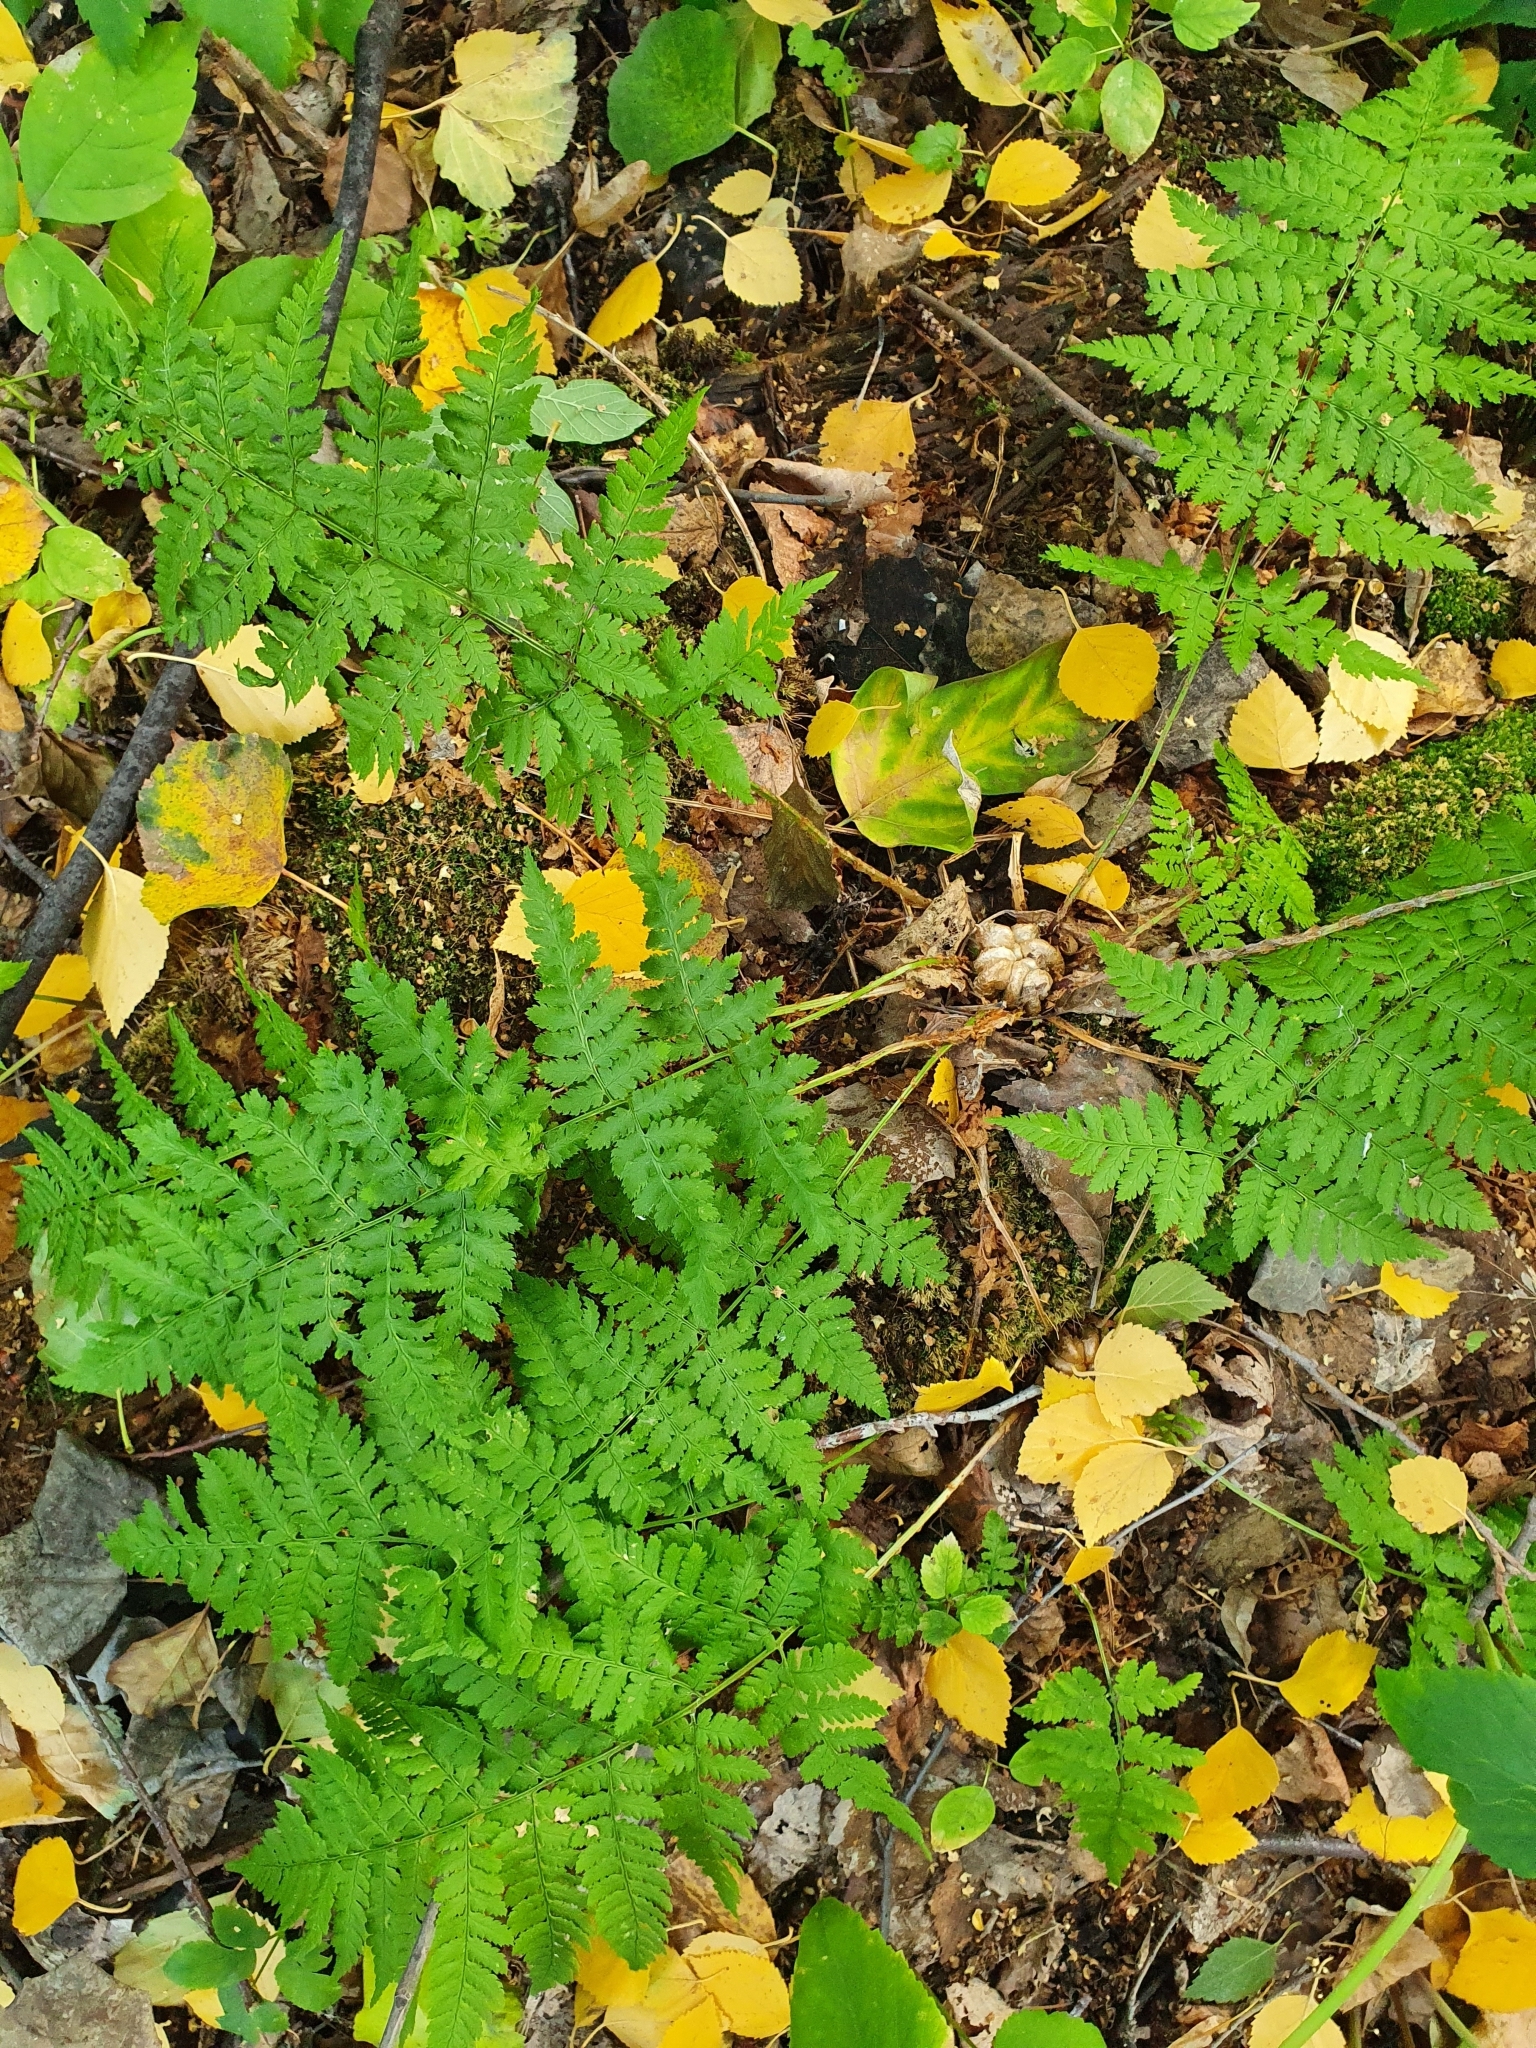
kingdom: Plantae
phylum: Tracheophyta
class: Polypodiopsida
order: Polypodiales
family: Dryopteridaceae
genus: Dryopteris
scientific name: Dryopteris carthusiana
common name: Narrow buckler-fern
